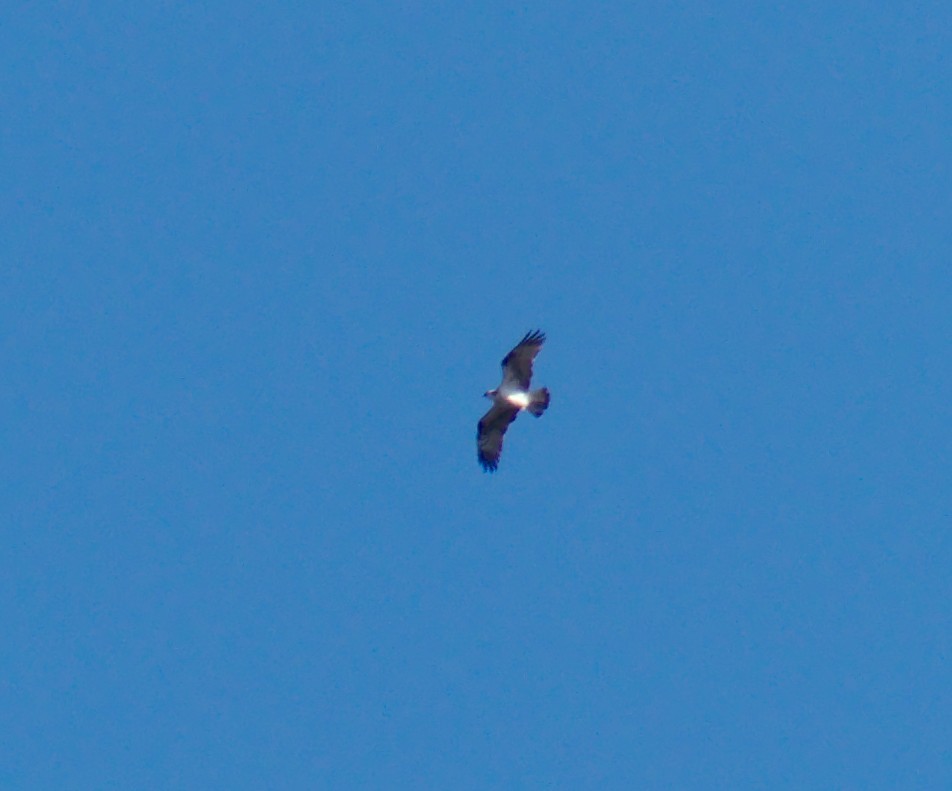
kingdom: Animalia
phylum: Chordata
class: Aves
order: Accipitriformes
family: Pandionidae
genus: Pandion
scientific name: Pandion haliaetus
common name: Osprey
